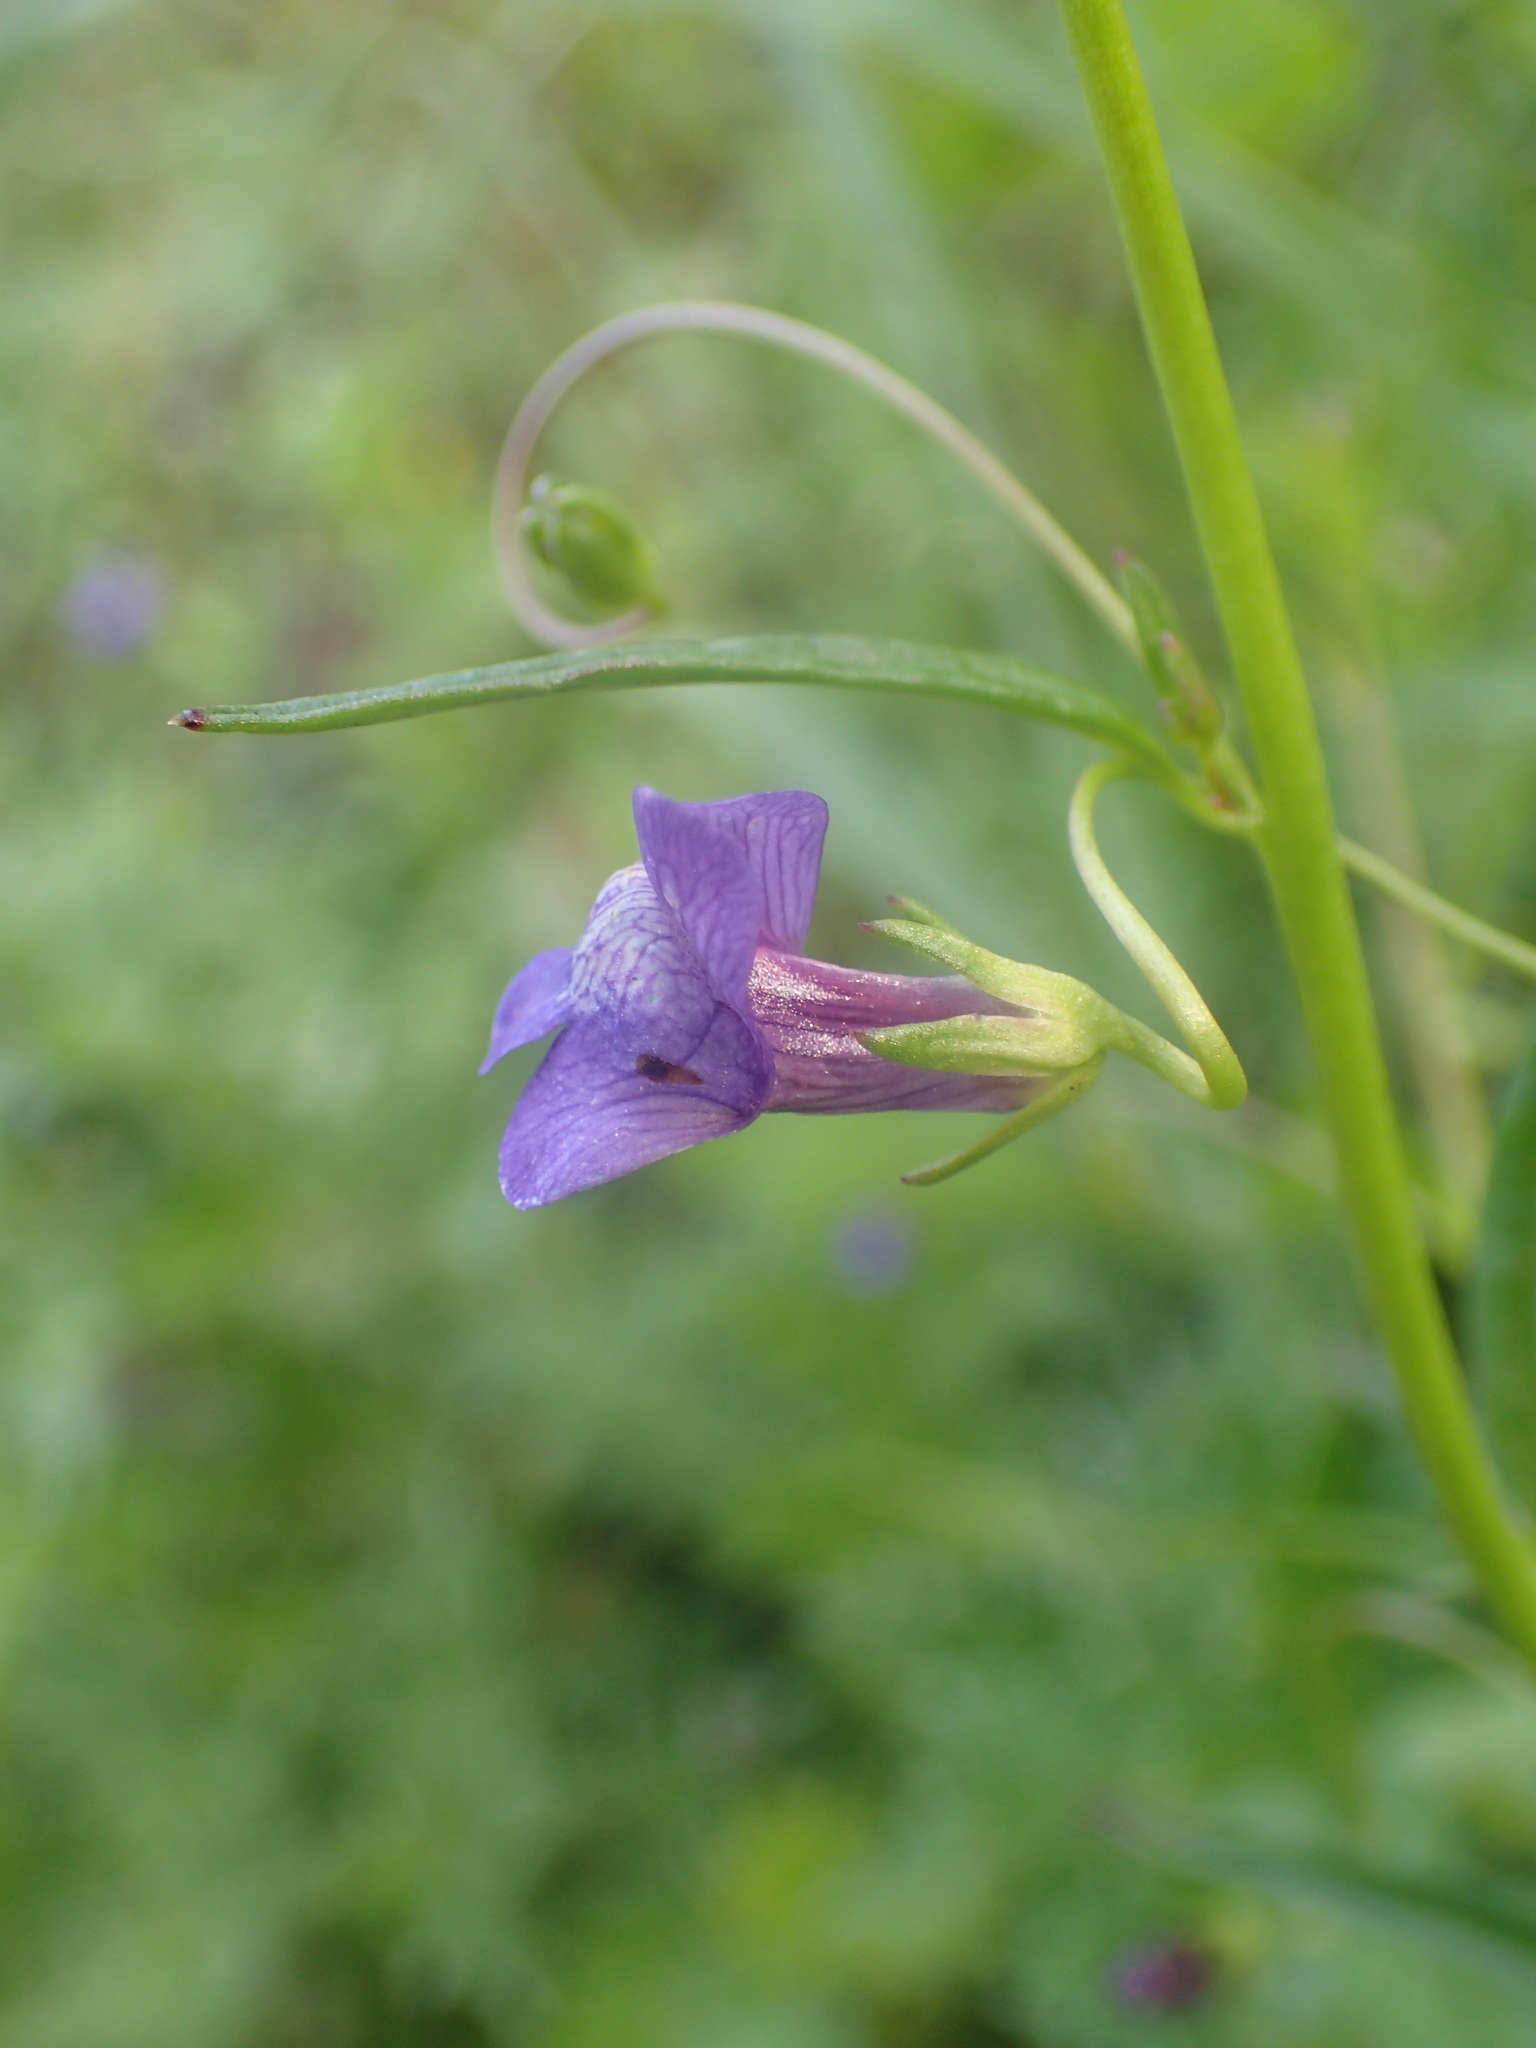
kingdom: Plantae
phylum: Tracheophyta
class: Magnoliopsida
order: Lamiales
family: Plantaginaceae
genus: Neogaerrhinum
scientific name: Neogaerrhinum strictum
